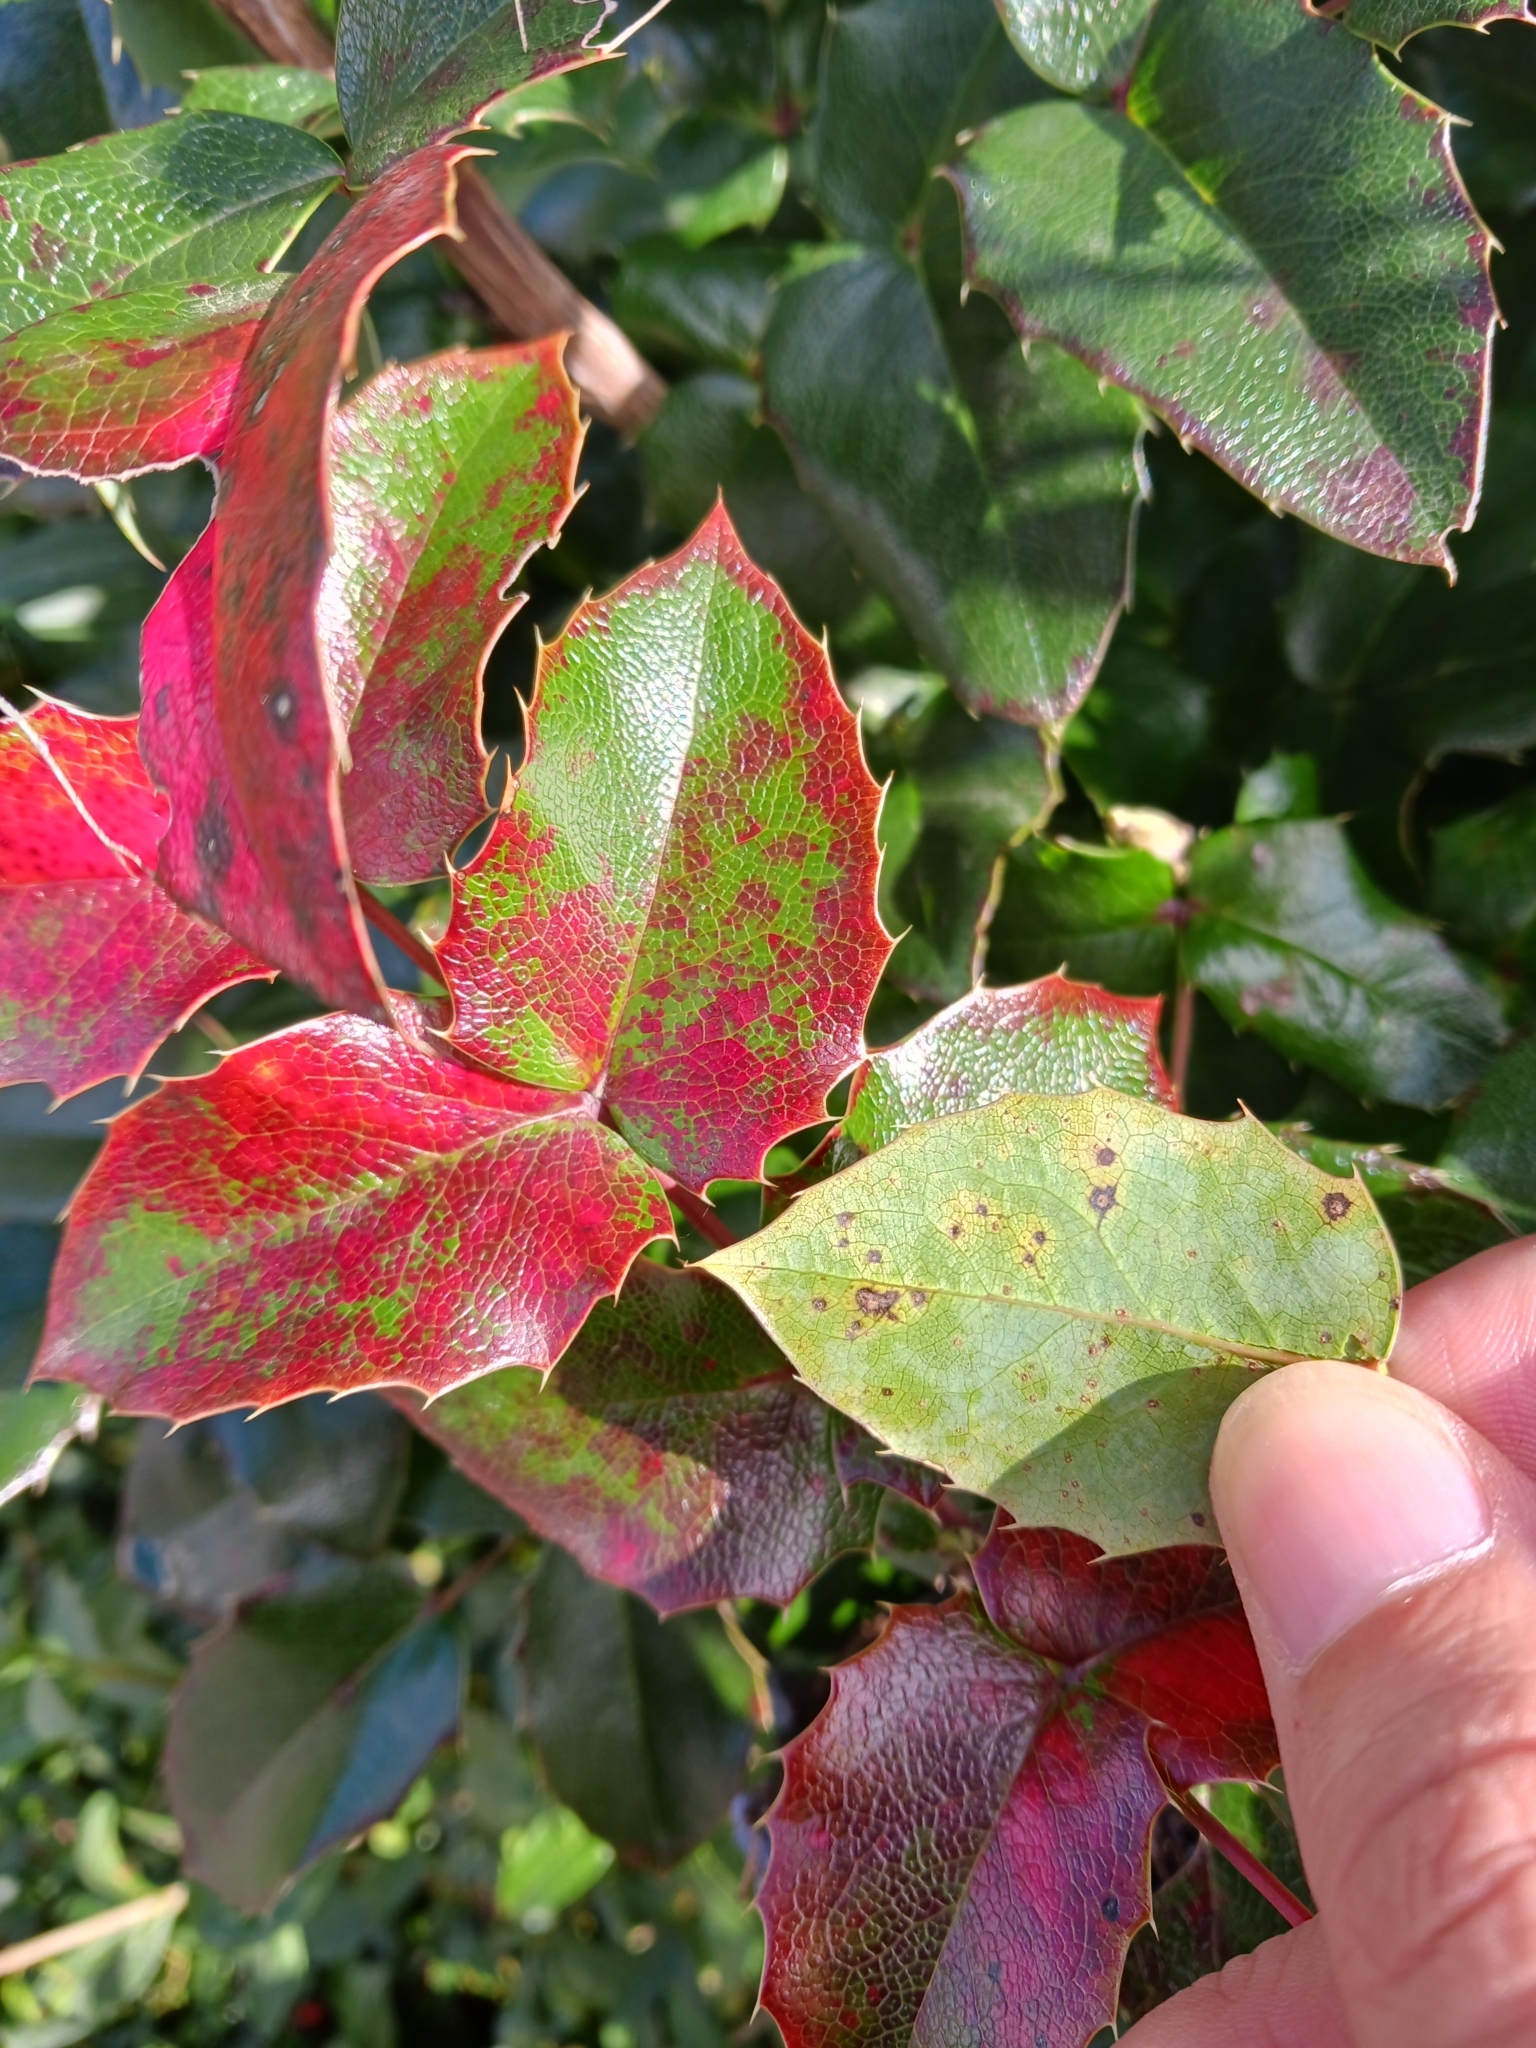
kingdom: Fungi
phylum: Basidiomycota
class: Pucciniomycetes
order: Pucciniales
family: Pucciniaceae
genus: Cumminsiella
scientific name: Cumminsiella mirabilissima
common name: Mahonia rust
